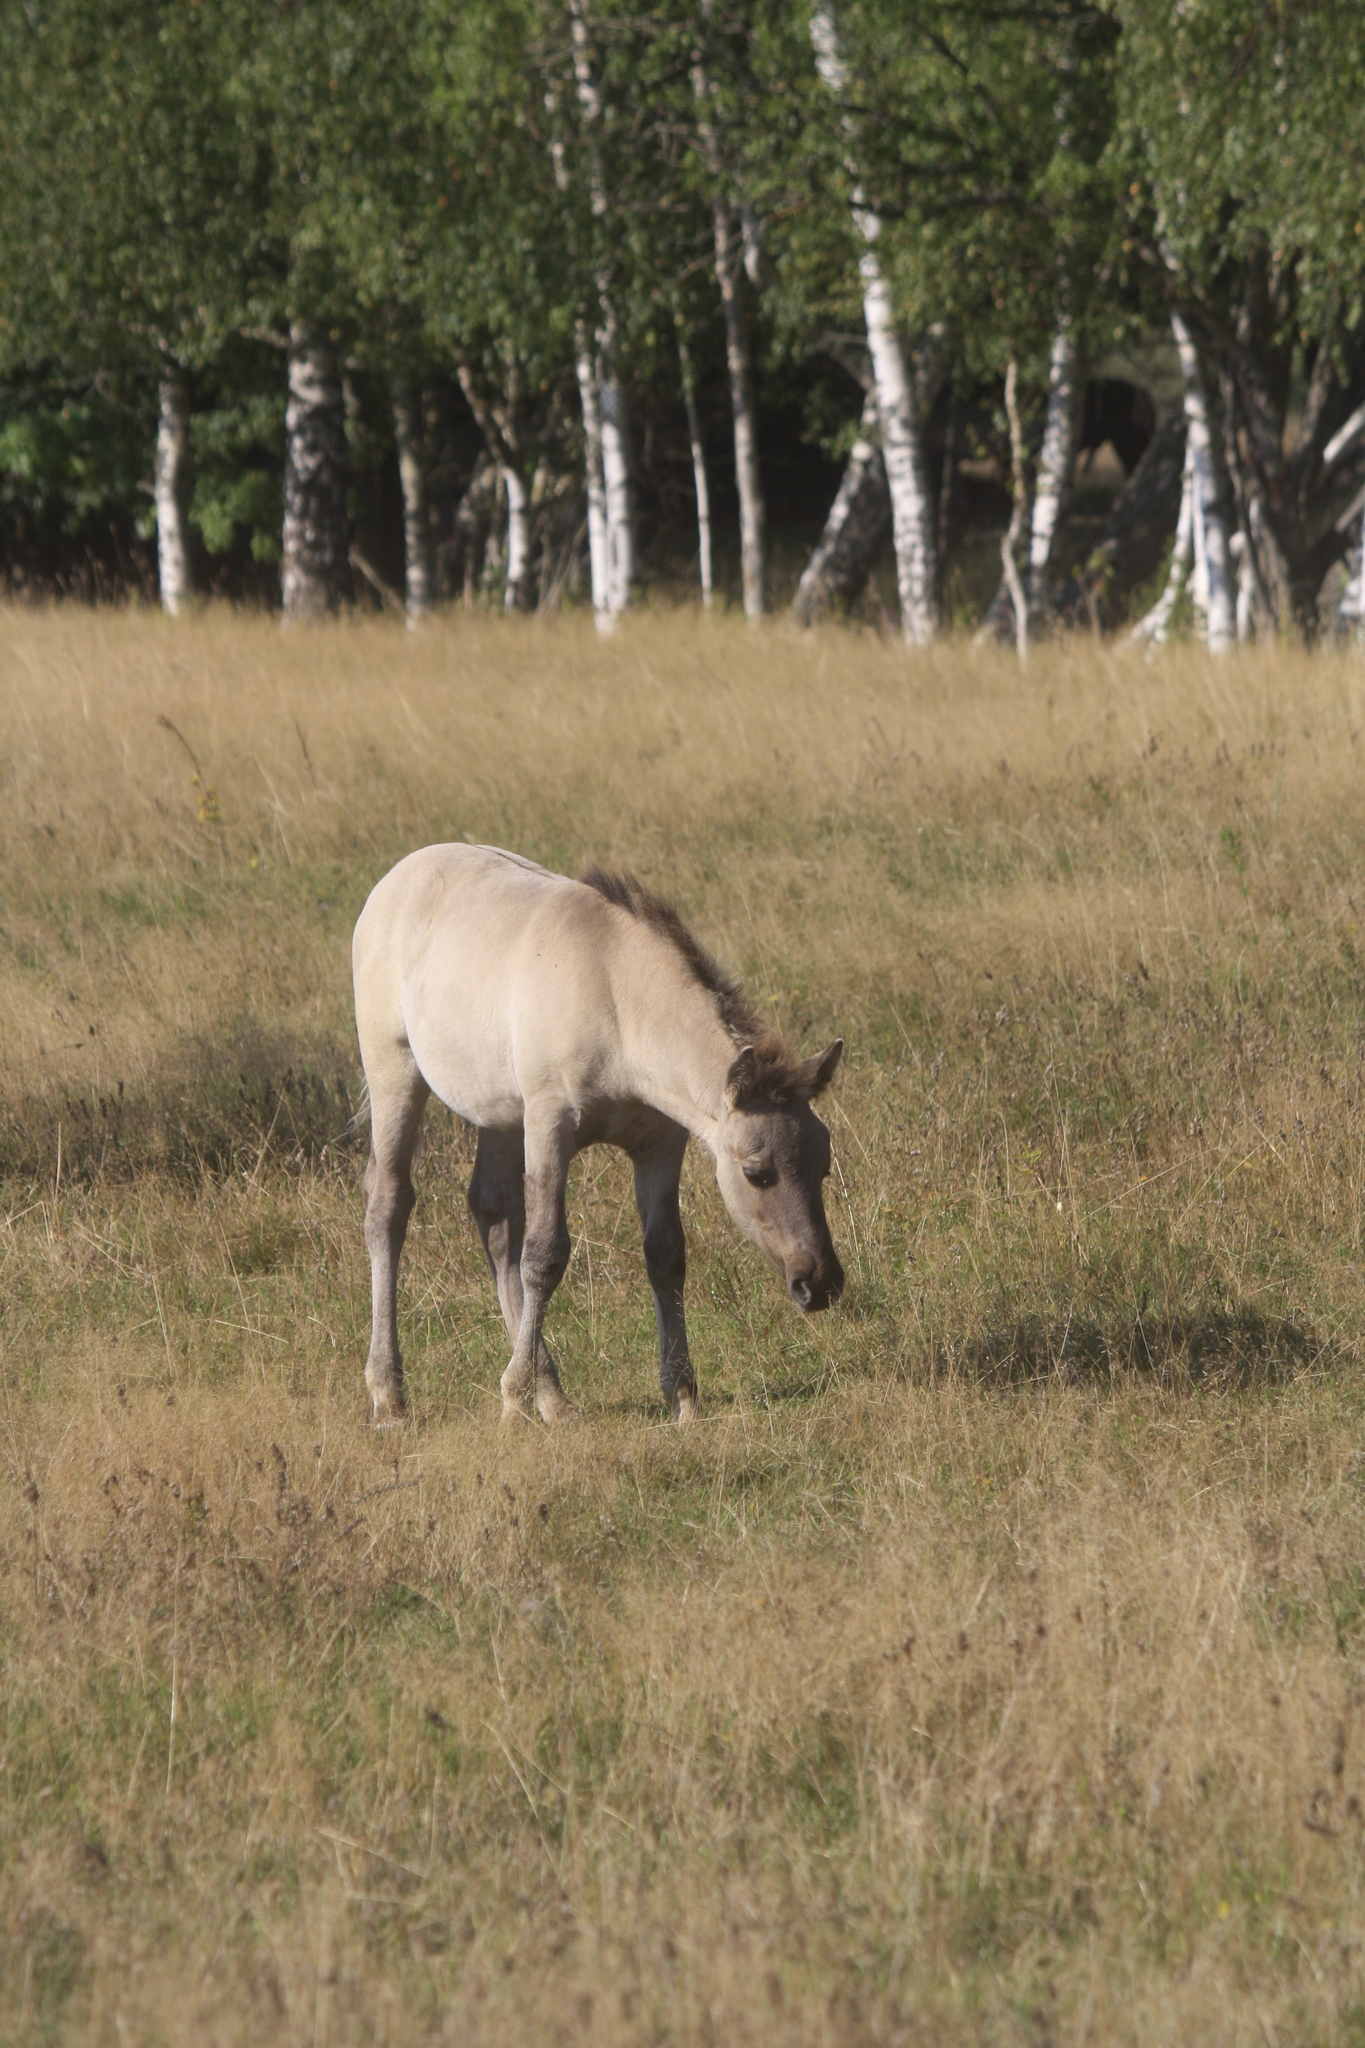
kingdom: Animalia
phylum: Chordata
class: Mammalia
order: Perissodactyla
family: Equidae
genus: Equus
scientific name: Equus caballus
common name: Horse
